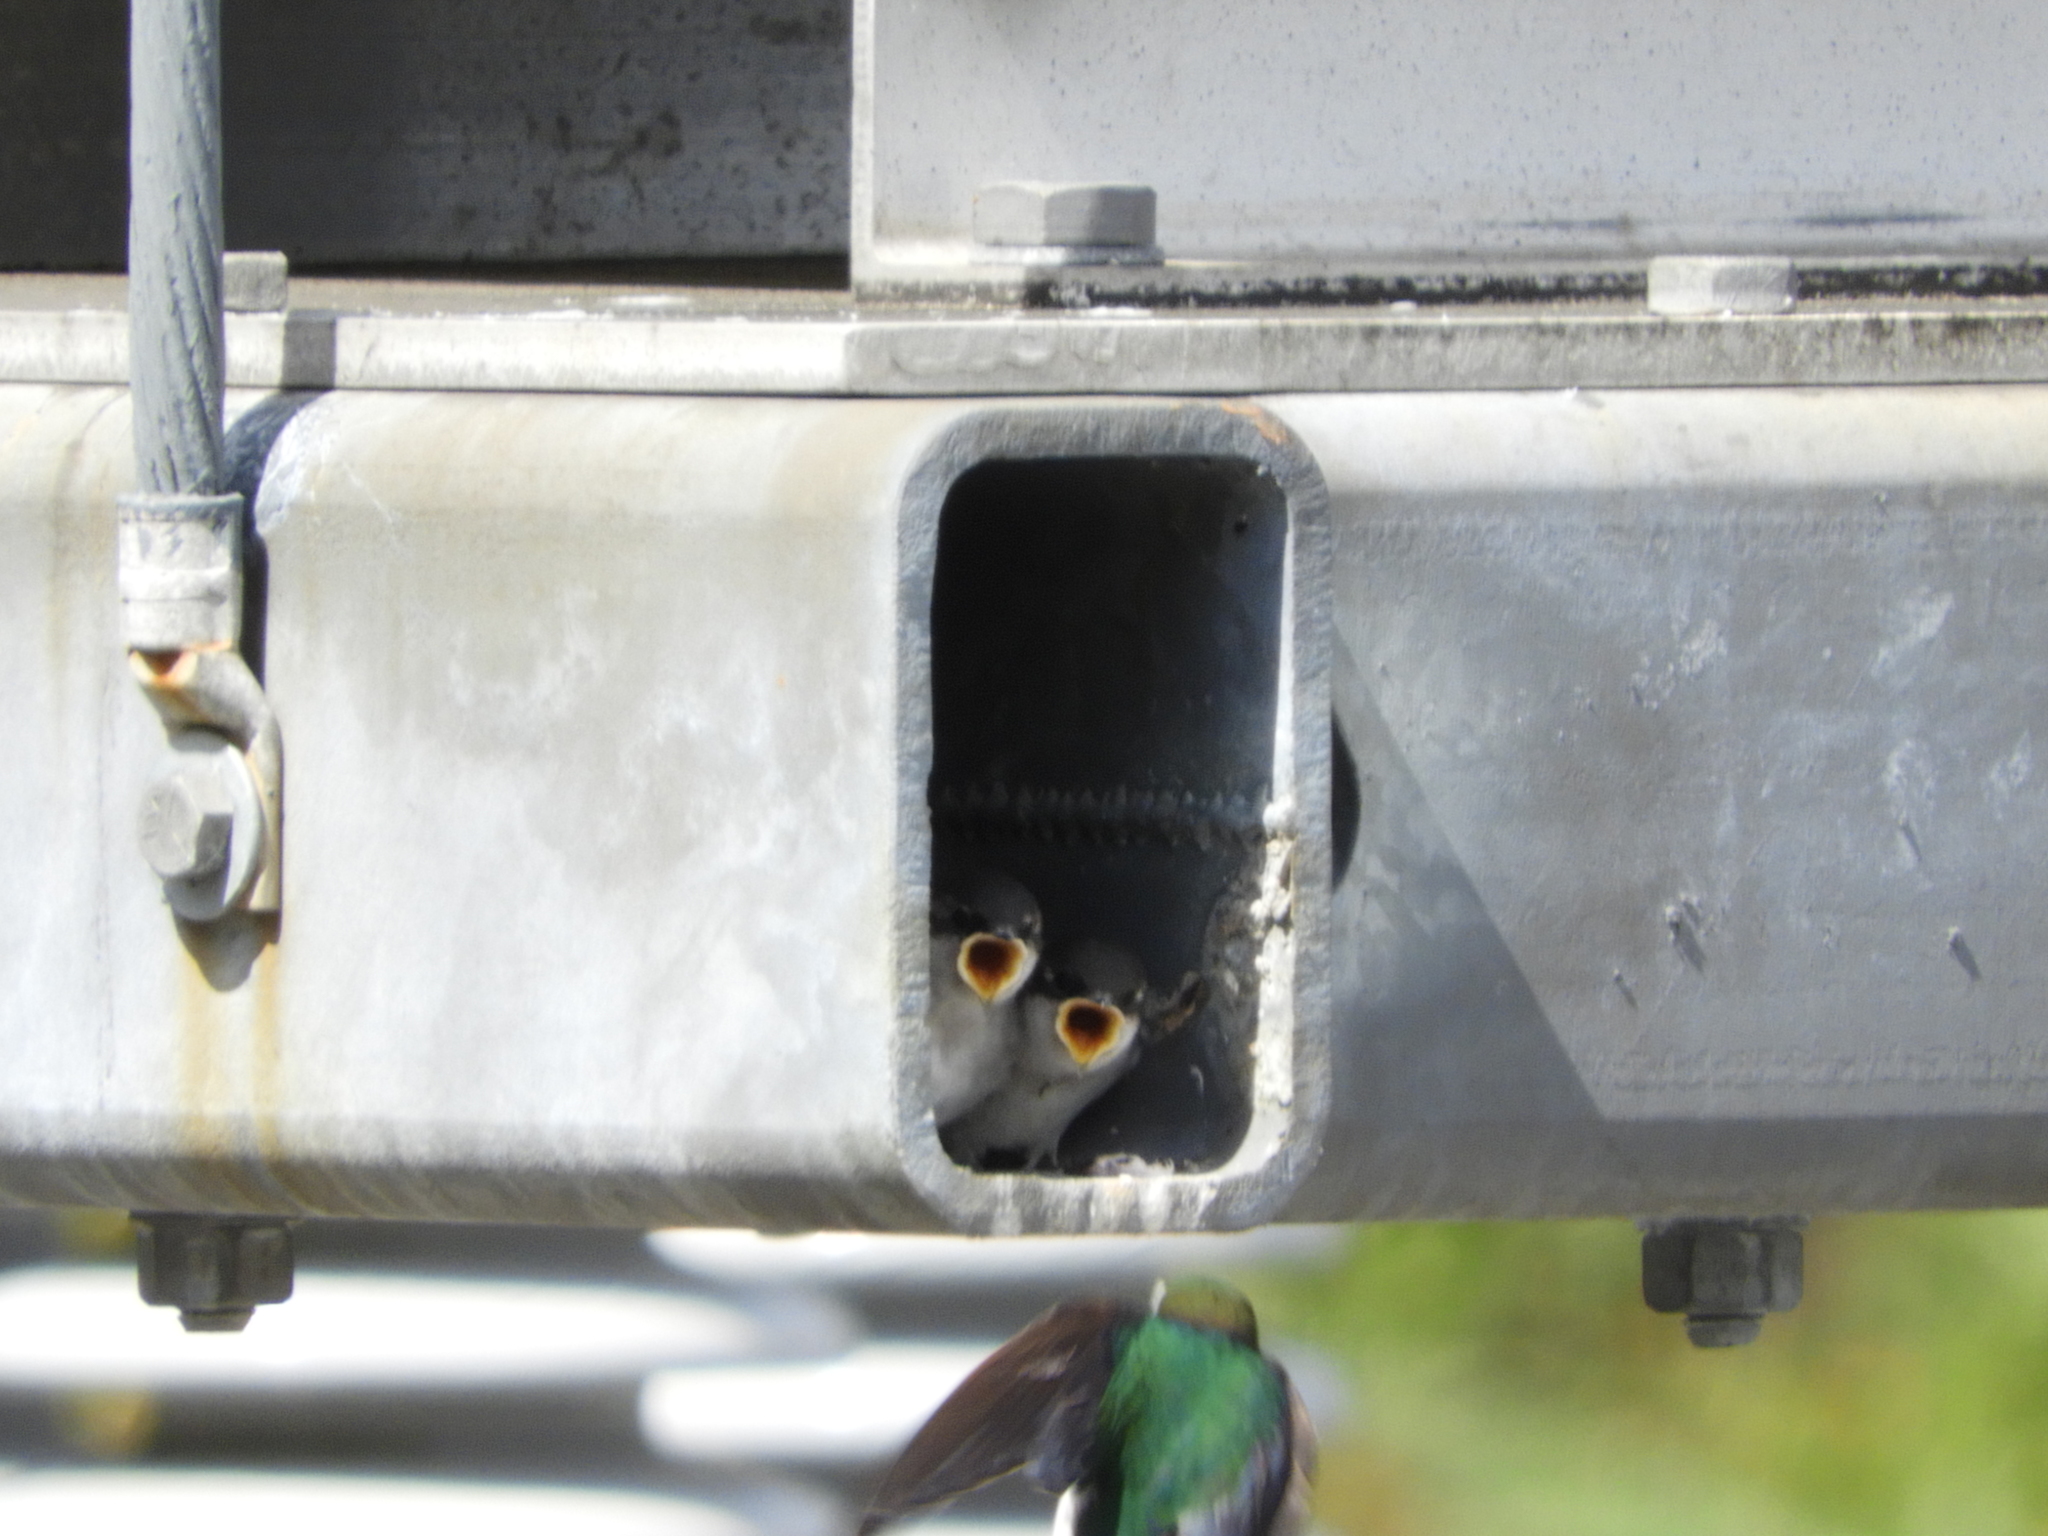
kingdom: Animalia
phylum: Chordata
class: Aves
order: Passeriformes
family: Hirundinidae
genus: Tachycineta
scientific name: Tachycineta thalassina
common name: Violet-green swallow
